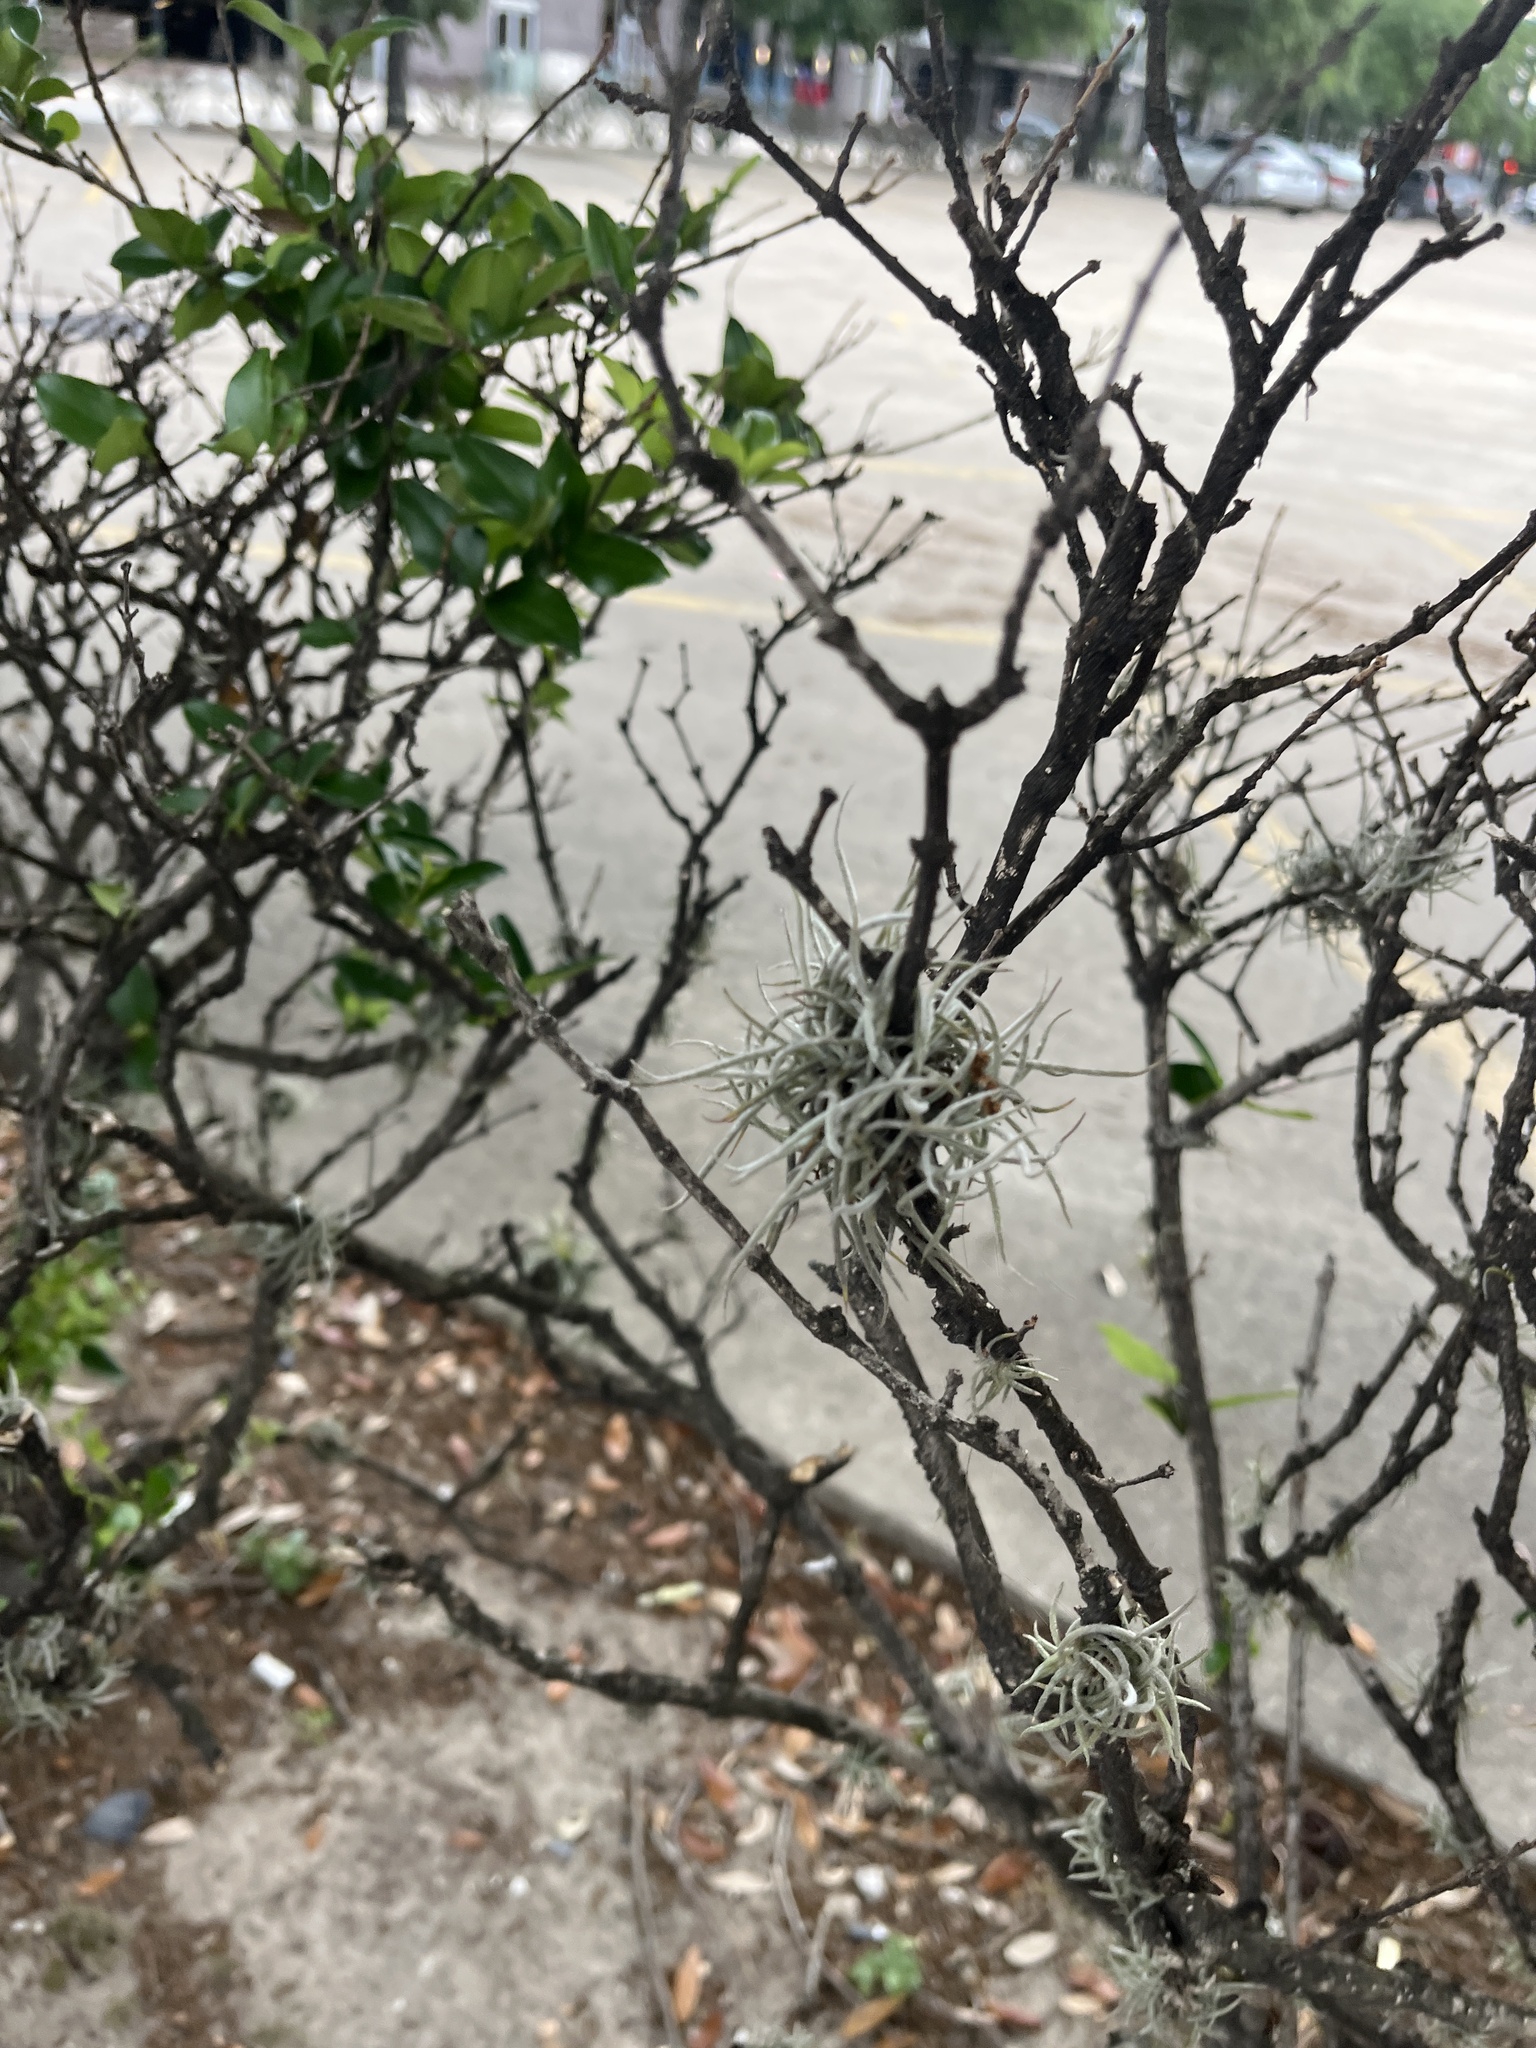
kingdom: Plantae
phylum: Tracheophyta
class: Liliopsida
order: Poales
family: Bromeliaceae
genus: Tillandsia
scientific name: Tillandsia recurvata
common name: Small ballmoss
